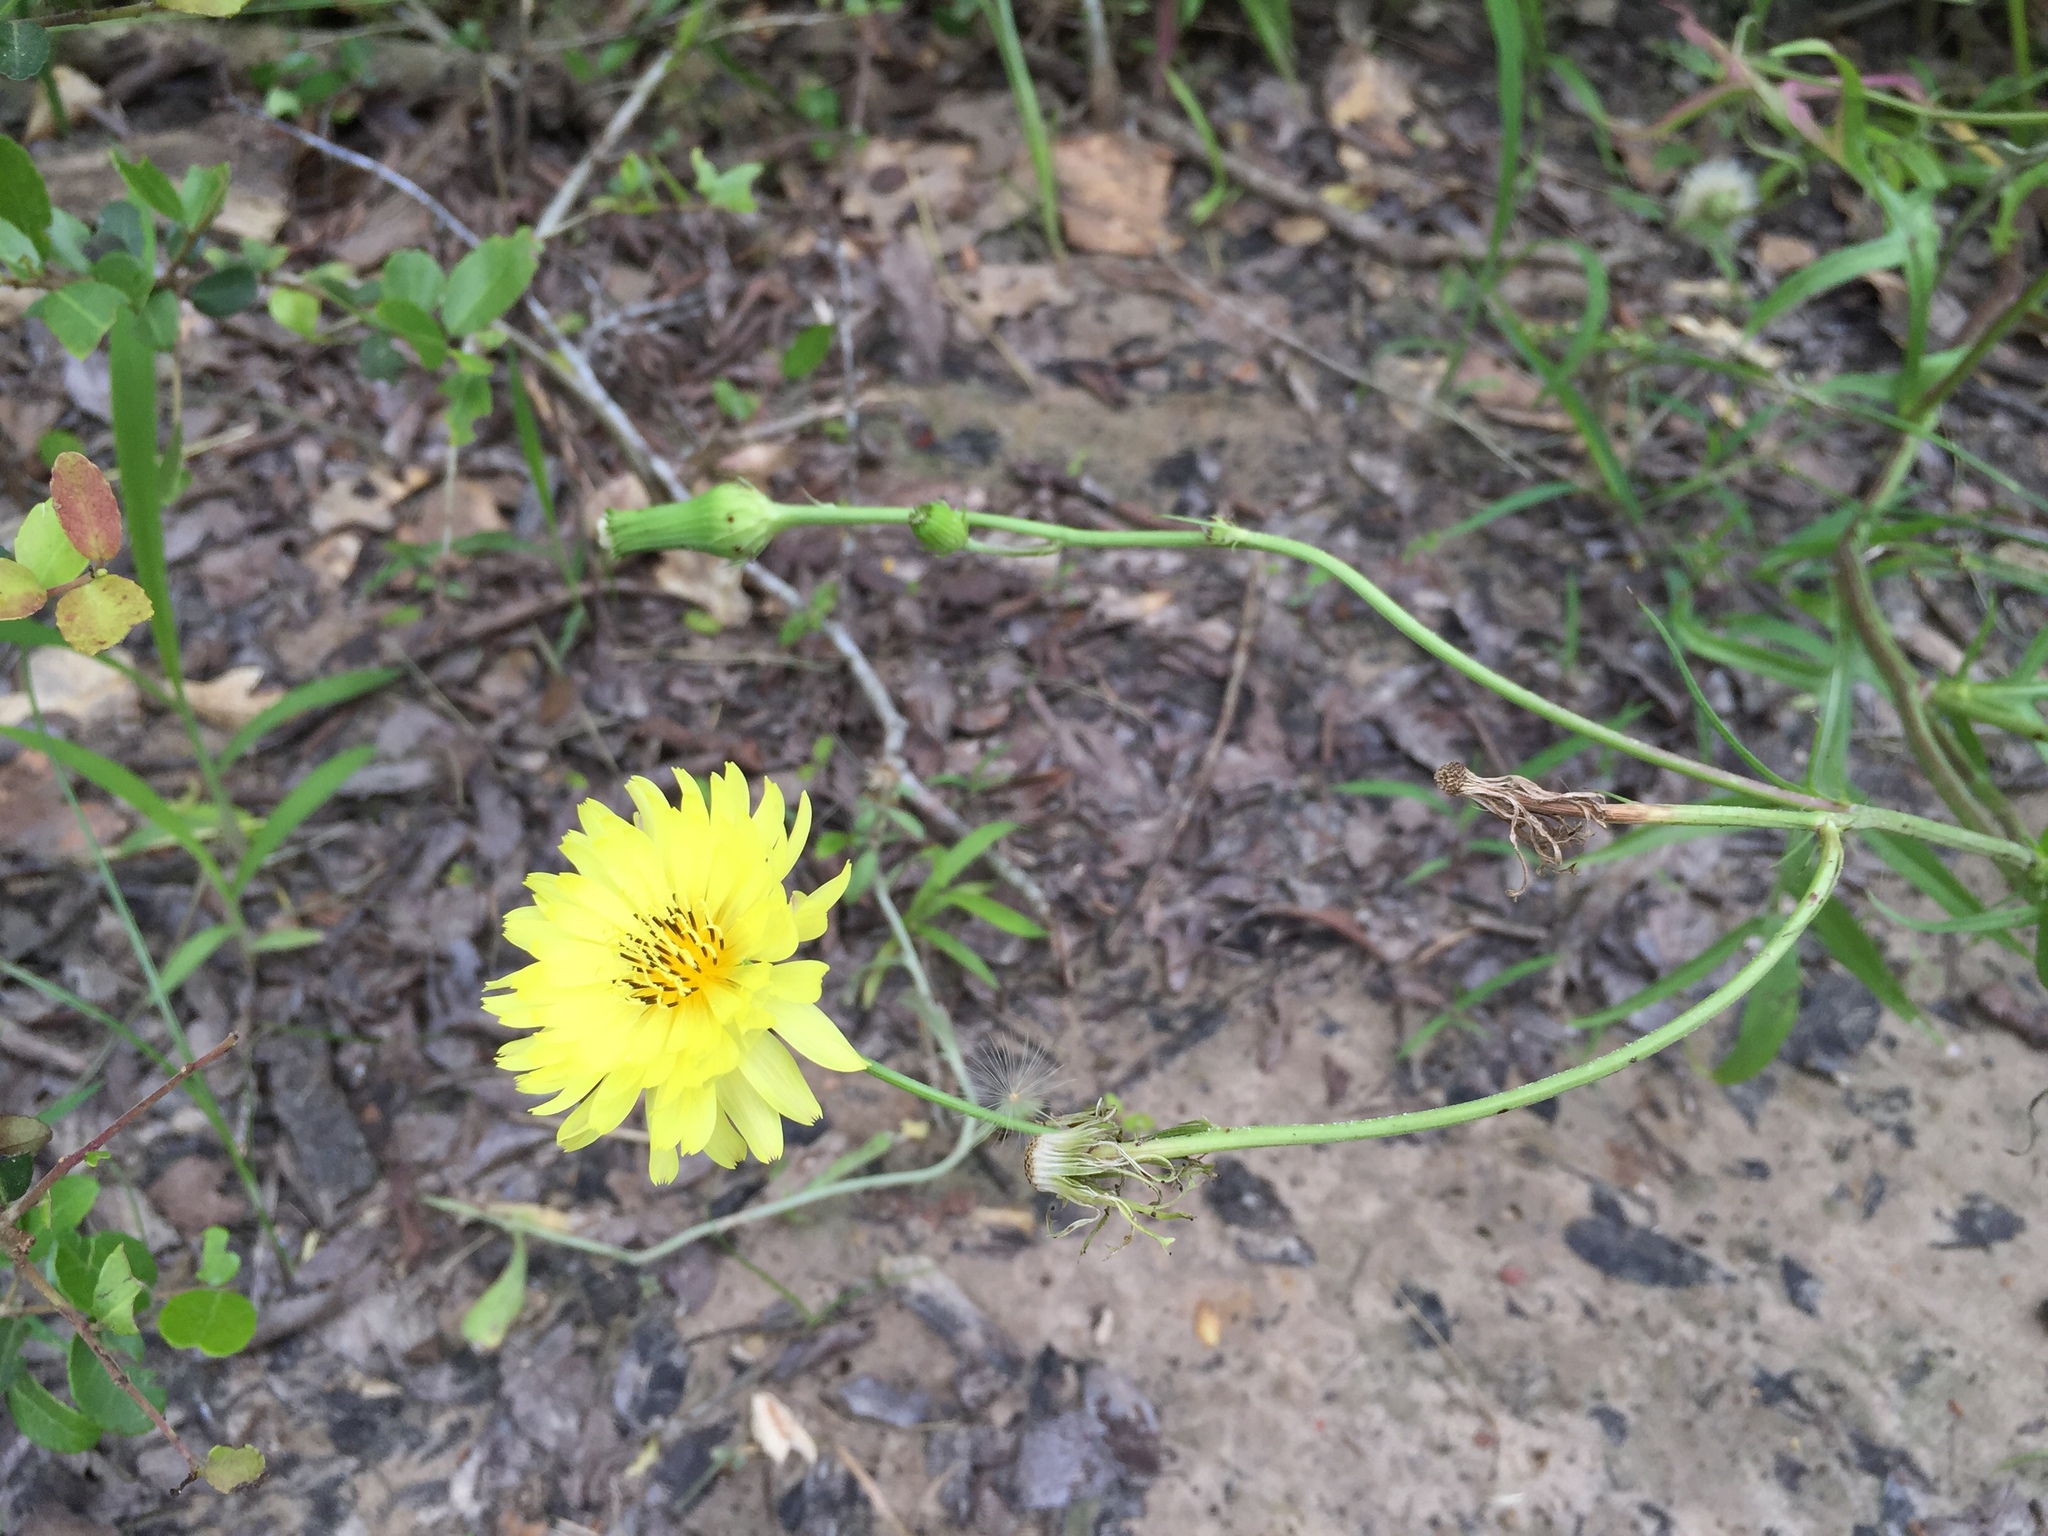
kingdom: Plantae
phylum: Tracheophyta
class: Magnoliopsida
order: Asterales
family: Asteraceae
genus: Pyrrhopappus
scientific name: Pyrrhopappus pauciflorus
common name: Texas false dandelion
